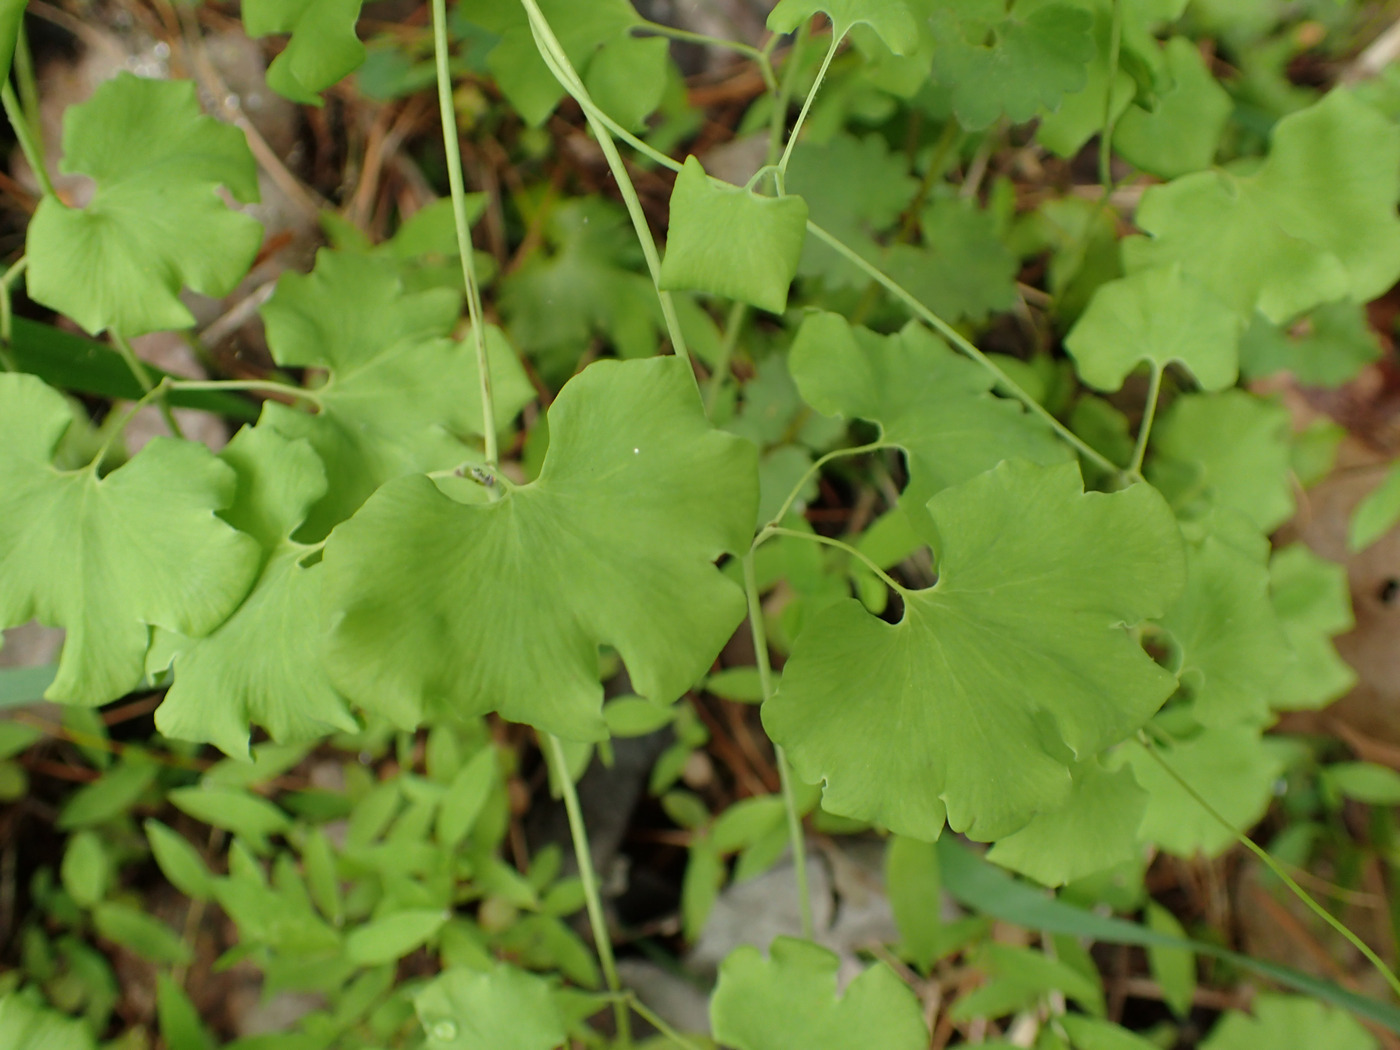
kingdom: Plantae
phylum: Tracheophyta
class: Polypodiopsida
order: Schizaeales
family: Lygodiaceae
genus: Lygodium
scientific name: Lygodium palmatum
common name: American climbing fern
